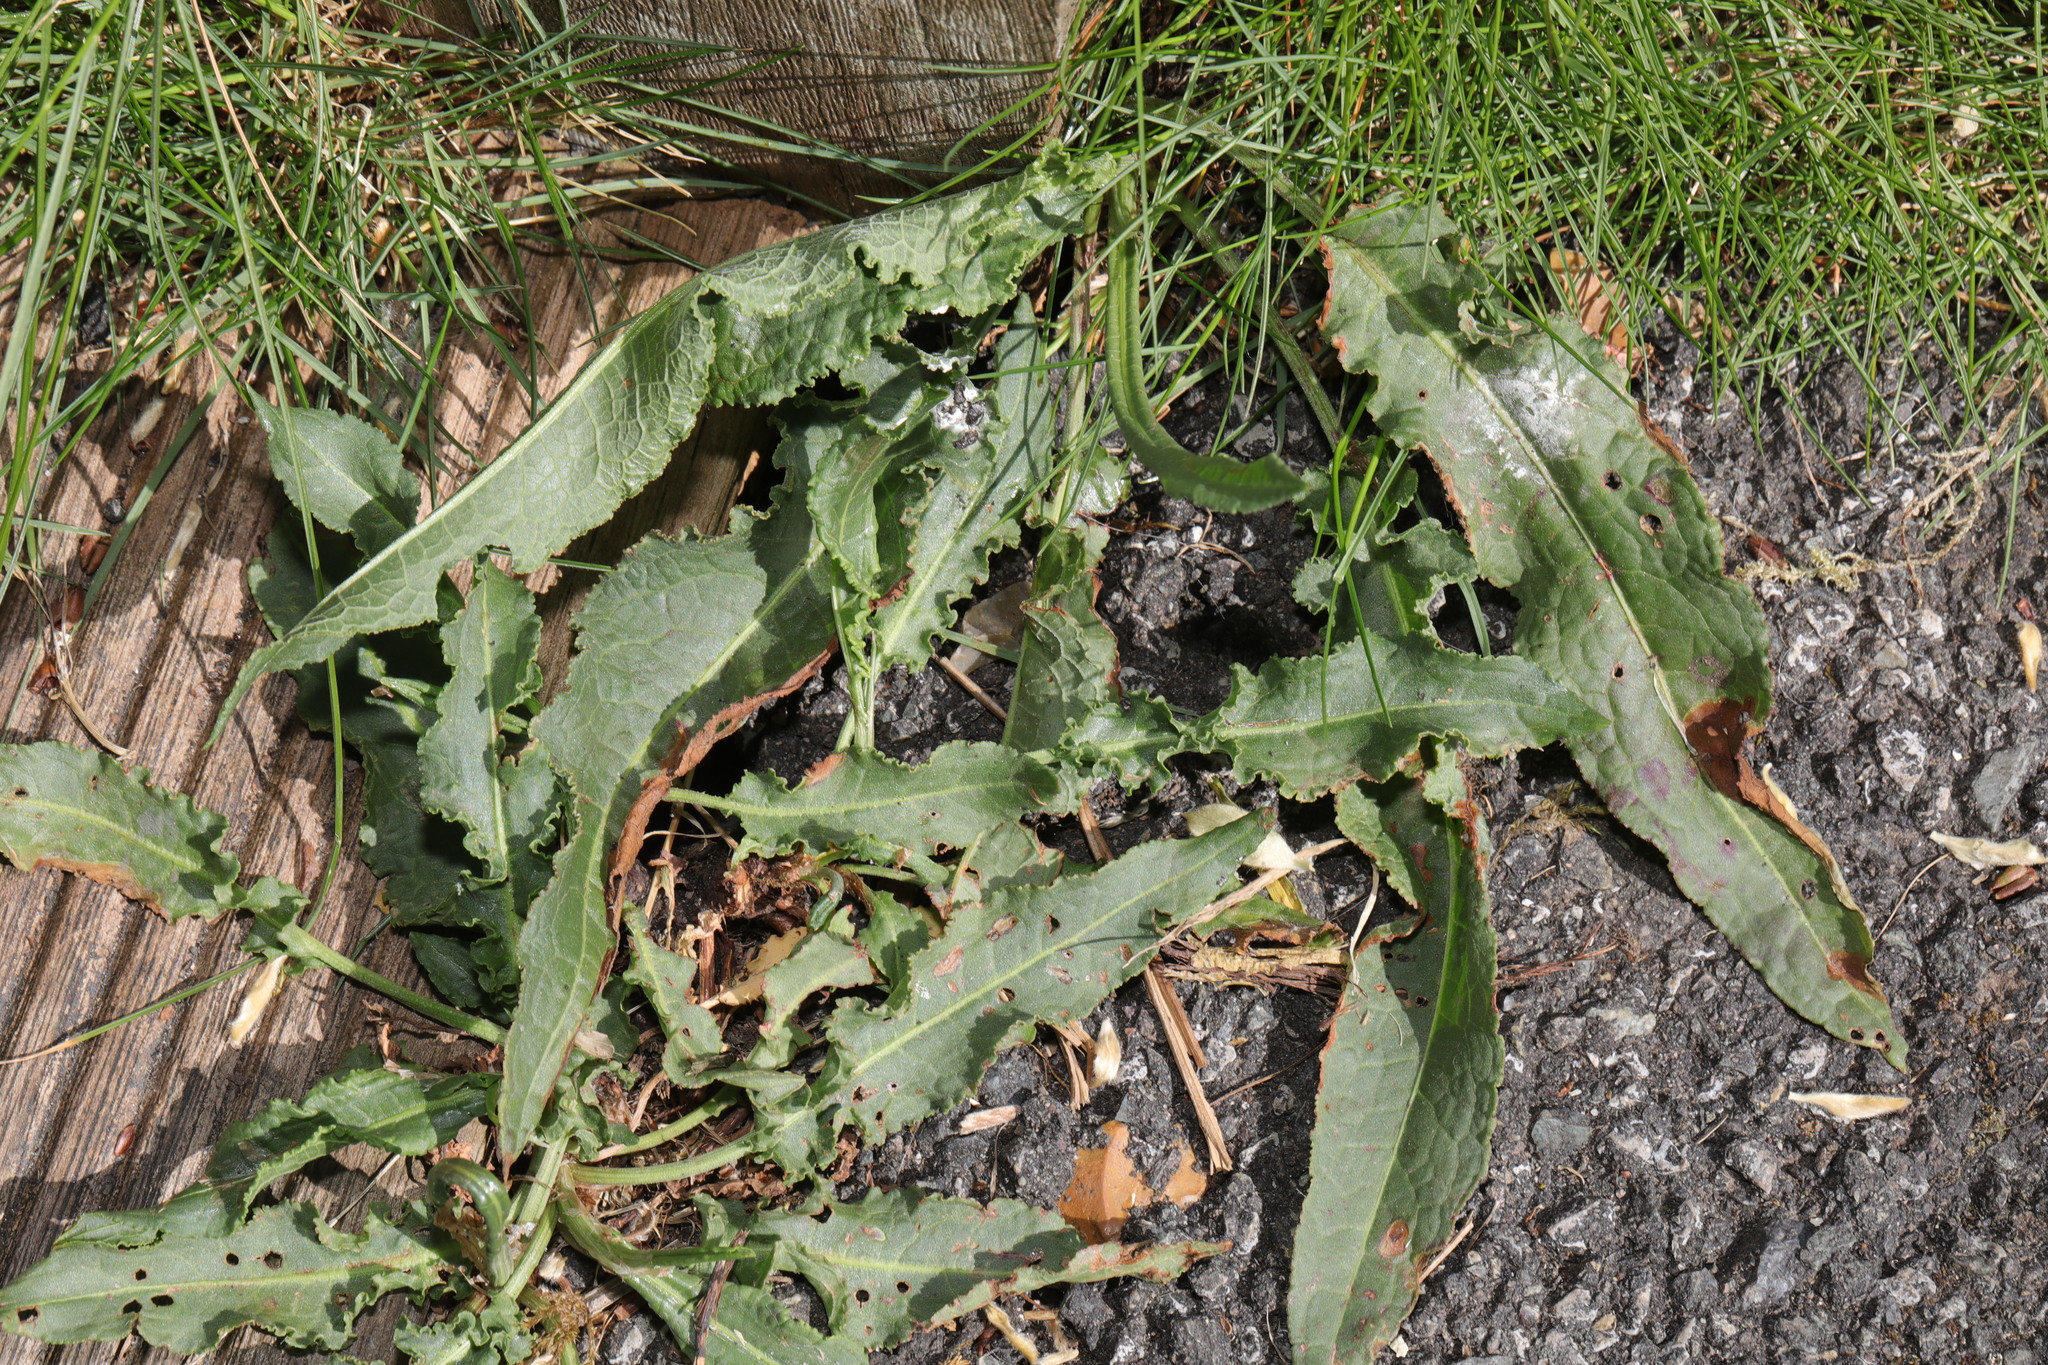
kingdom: Plantae
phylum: Tracheophyta
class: Magnoliopsida
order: Caryophyllales
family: Polygonaceae
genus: Rumex
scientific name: Rumex crispus
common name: Curled dock
